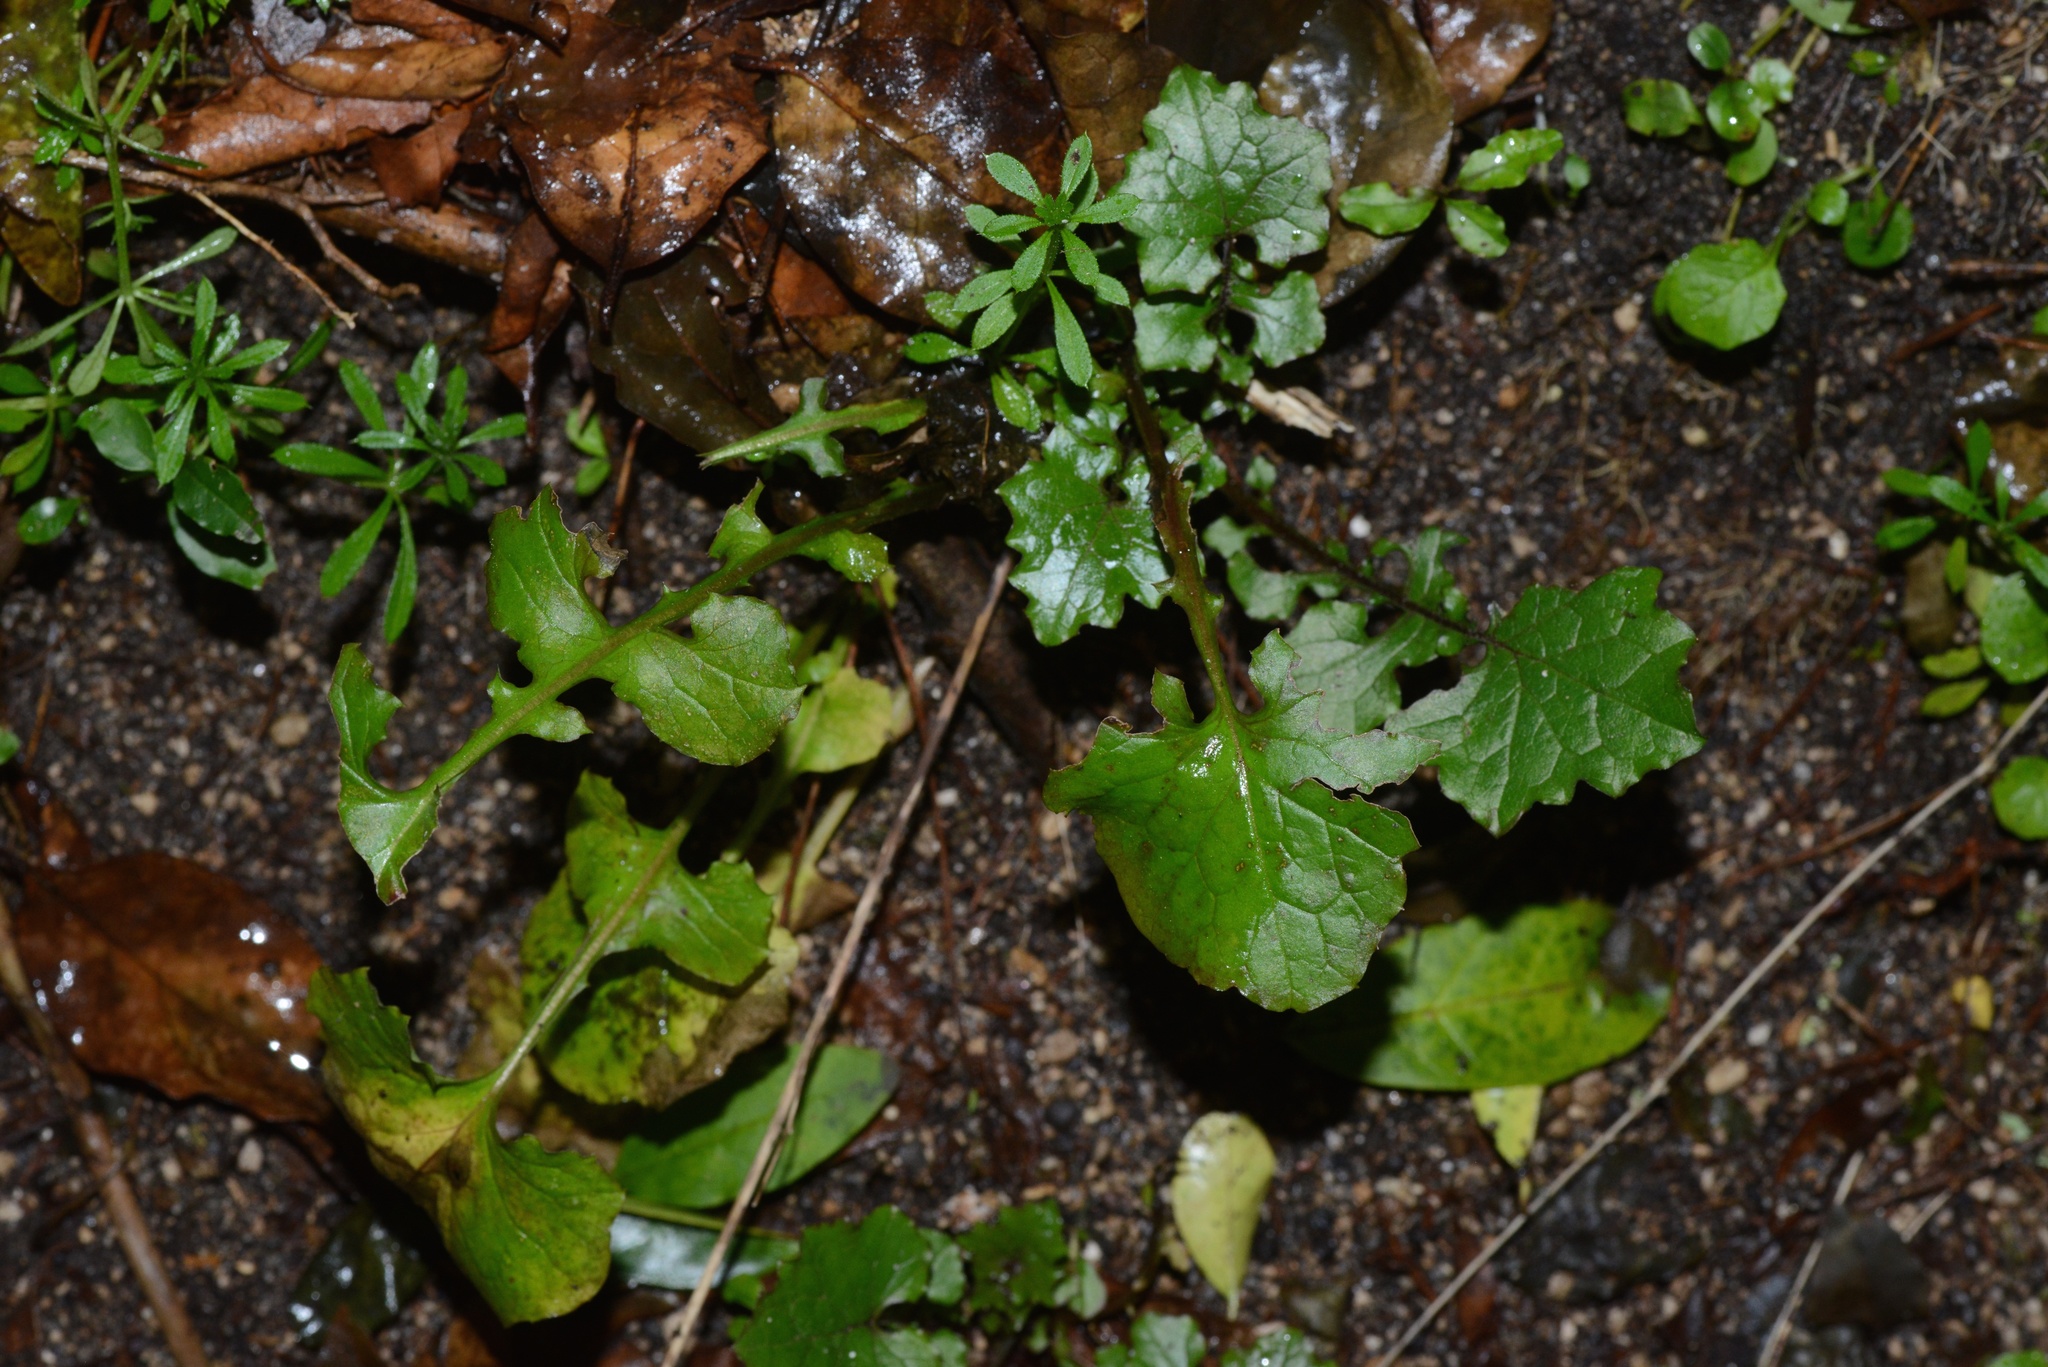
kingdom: Plantae
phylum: Tracheophyta
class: Magnoliopsida
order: Asterales
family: Asteraceae
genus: Mycelis
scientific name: Mycelis muralis
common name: Wall lettuce
